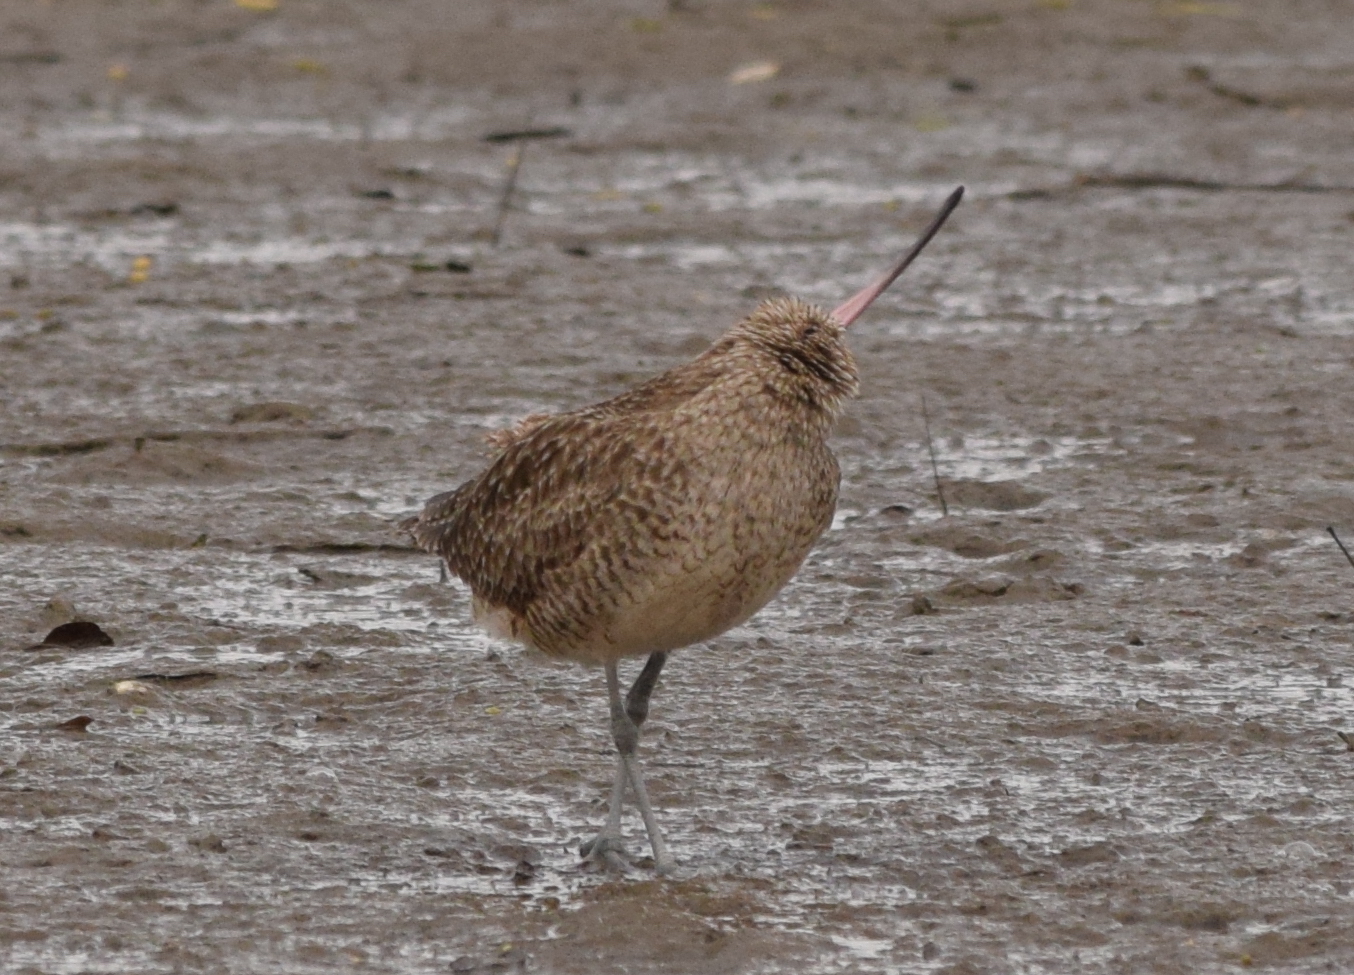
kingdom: Animalia
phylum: Chordata
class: Aves
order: Charadriiformes
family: Scolopacidae
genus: Limosa
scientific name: Limosa fedoa
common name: Marbled godwit
